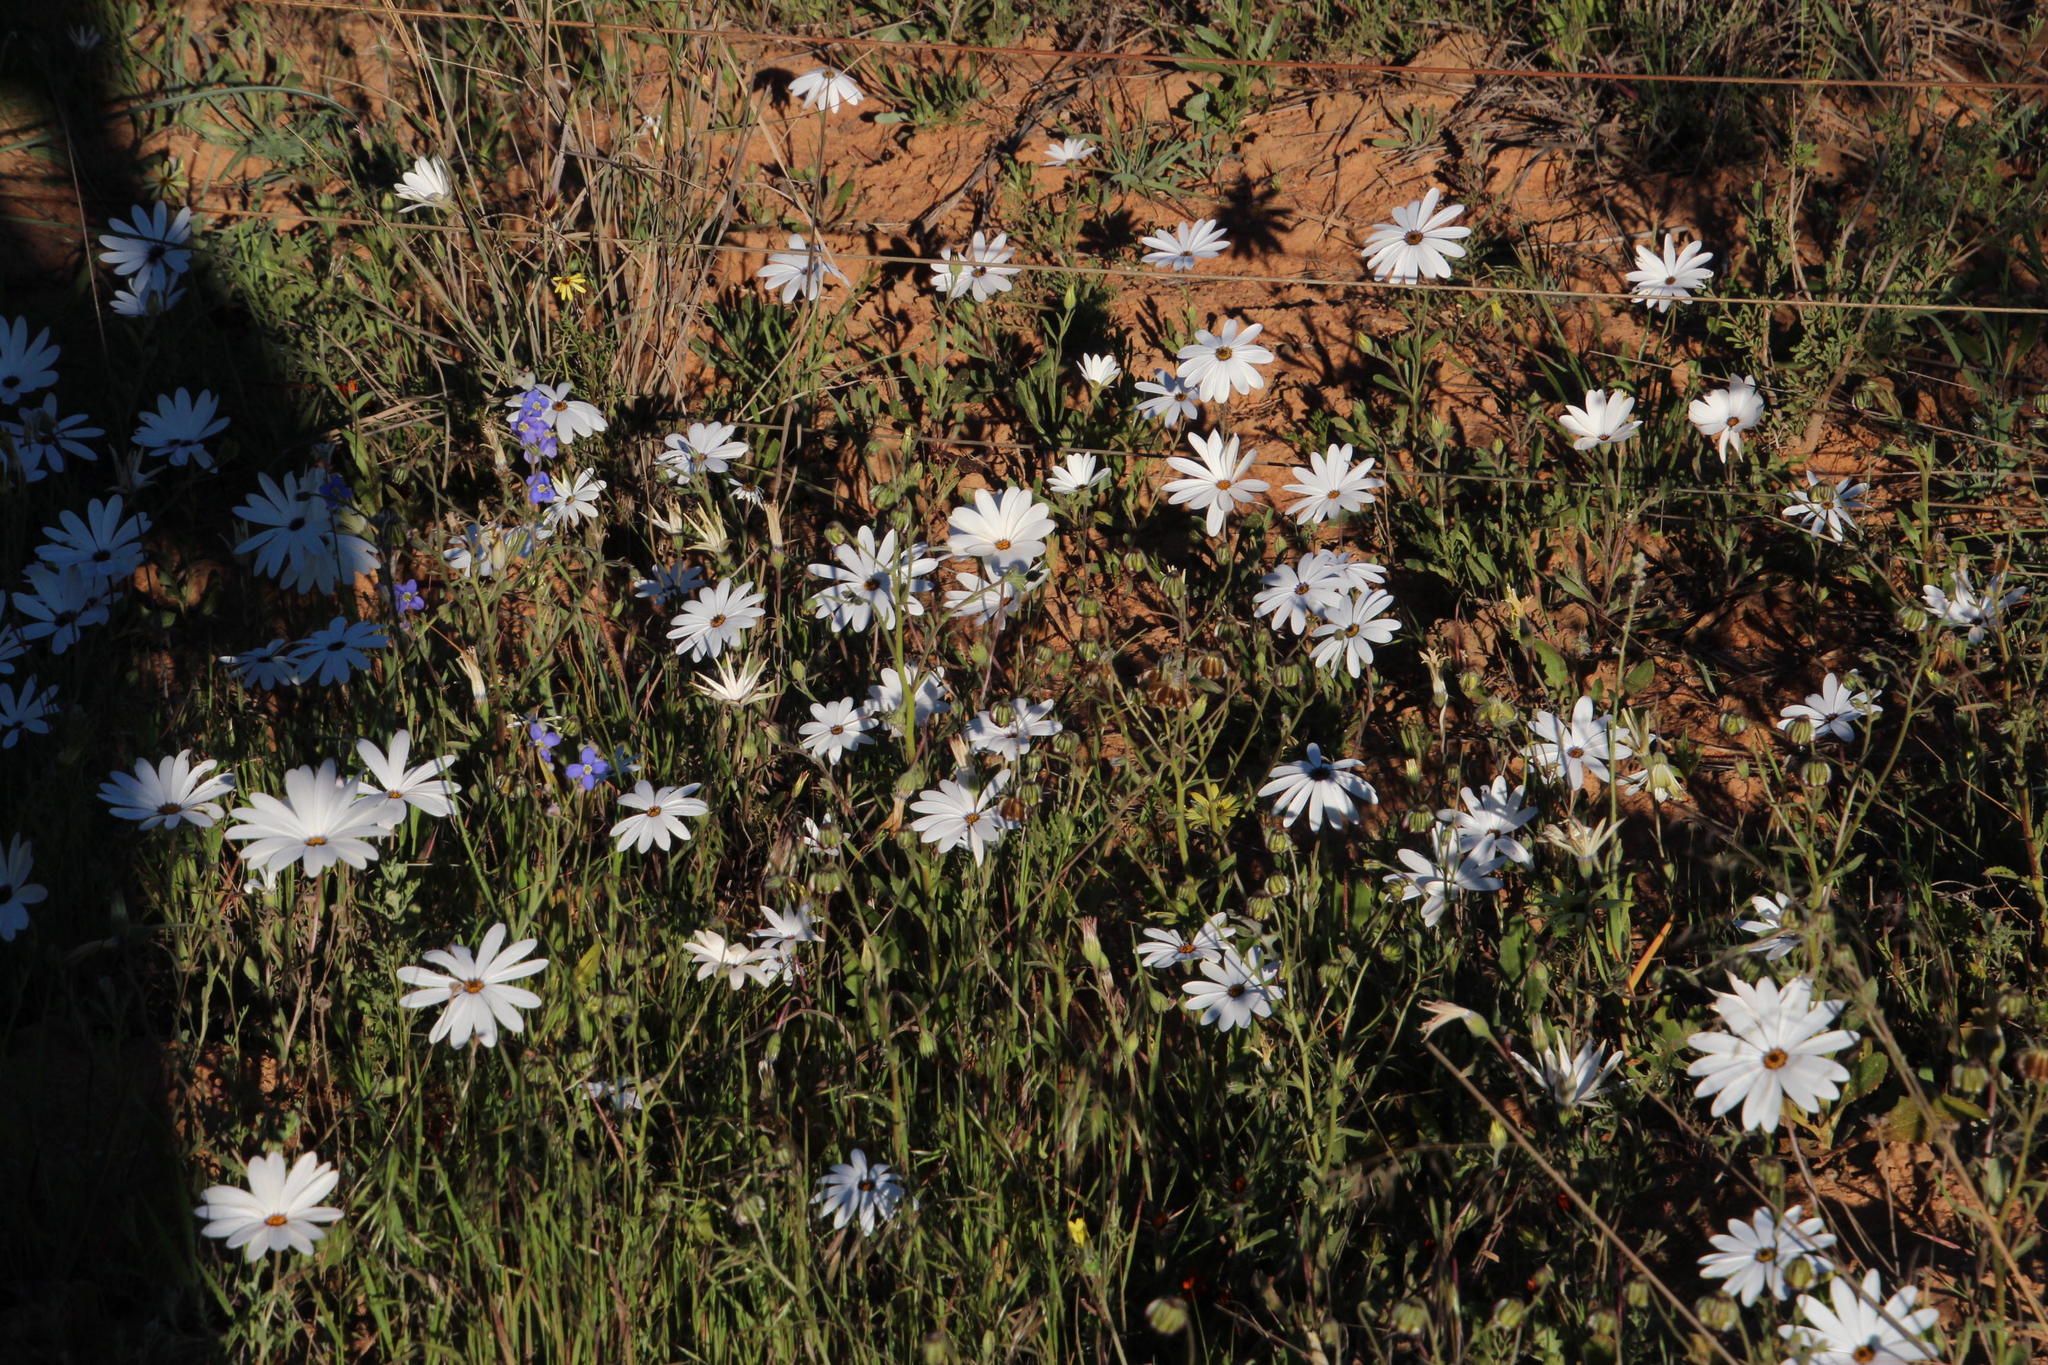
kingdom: Plantae
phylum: Tracheophyta
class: Magnoliopsida
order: Asterales
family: Asteraceae
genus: Dimorphotheca
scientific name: Dimorphotheca pluvialis
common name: Weather prophet
